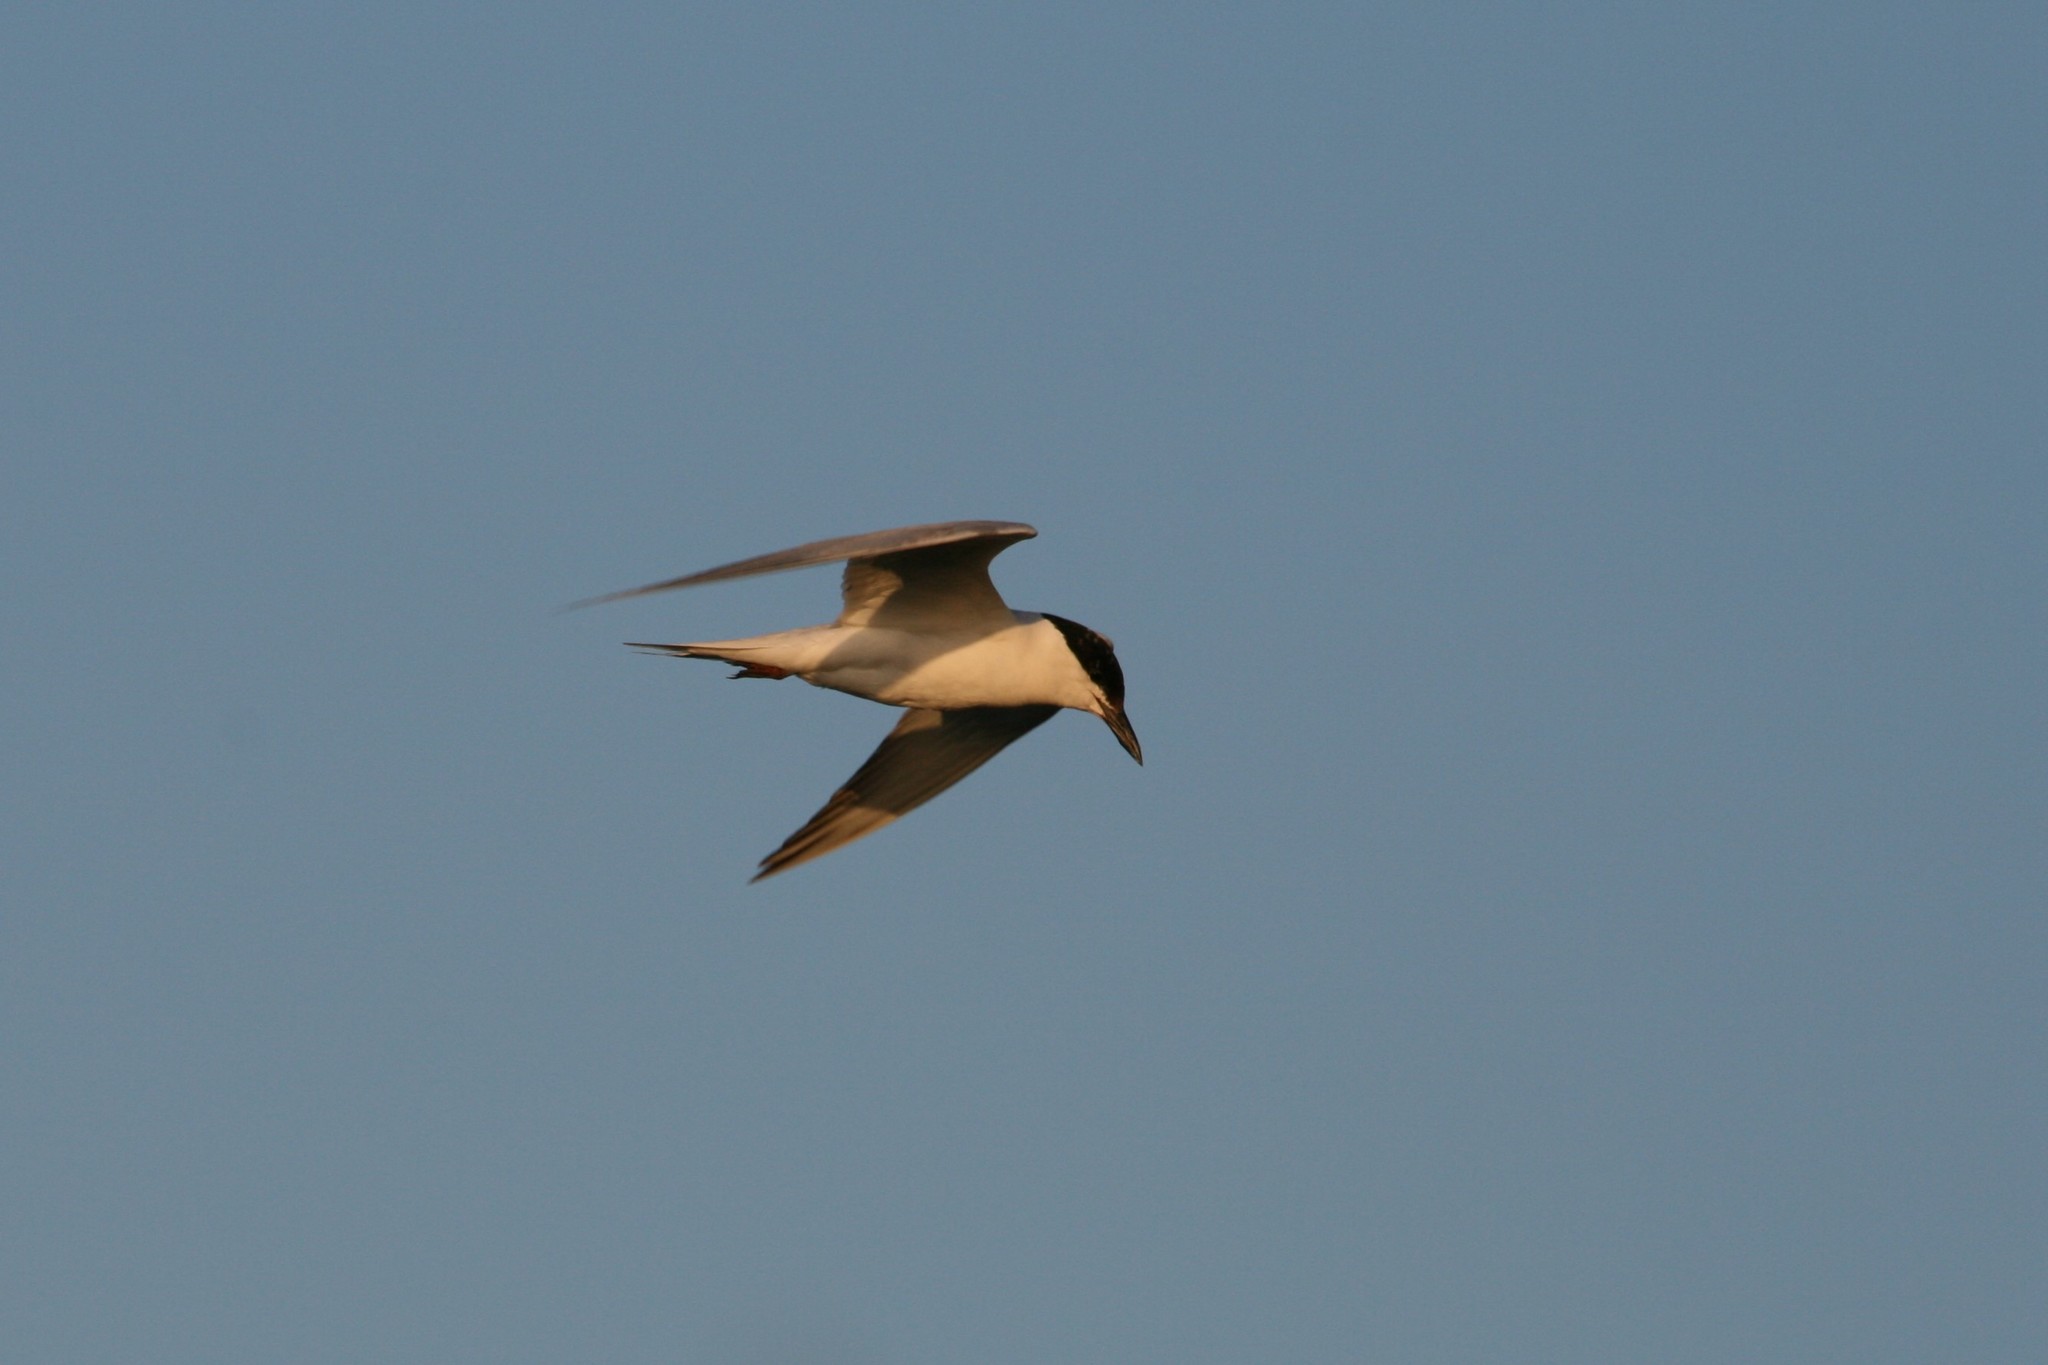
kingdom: Animalia
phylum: Chordata
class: Aves
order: Charadriiformes
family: Laridae
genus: Gelochelidon
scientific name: Gelochelidon nilotica
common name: Gull-billed tern
